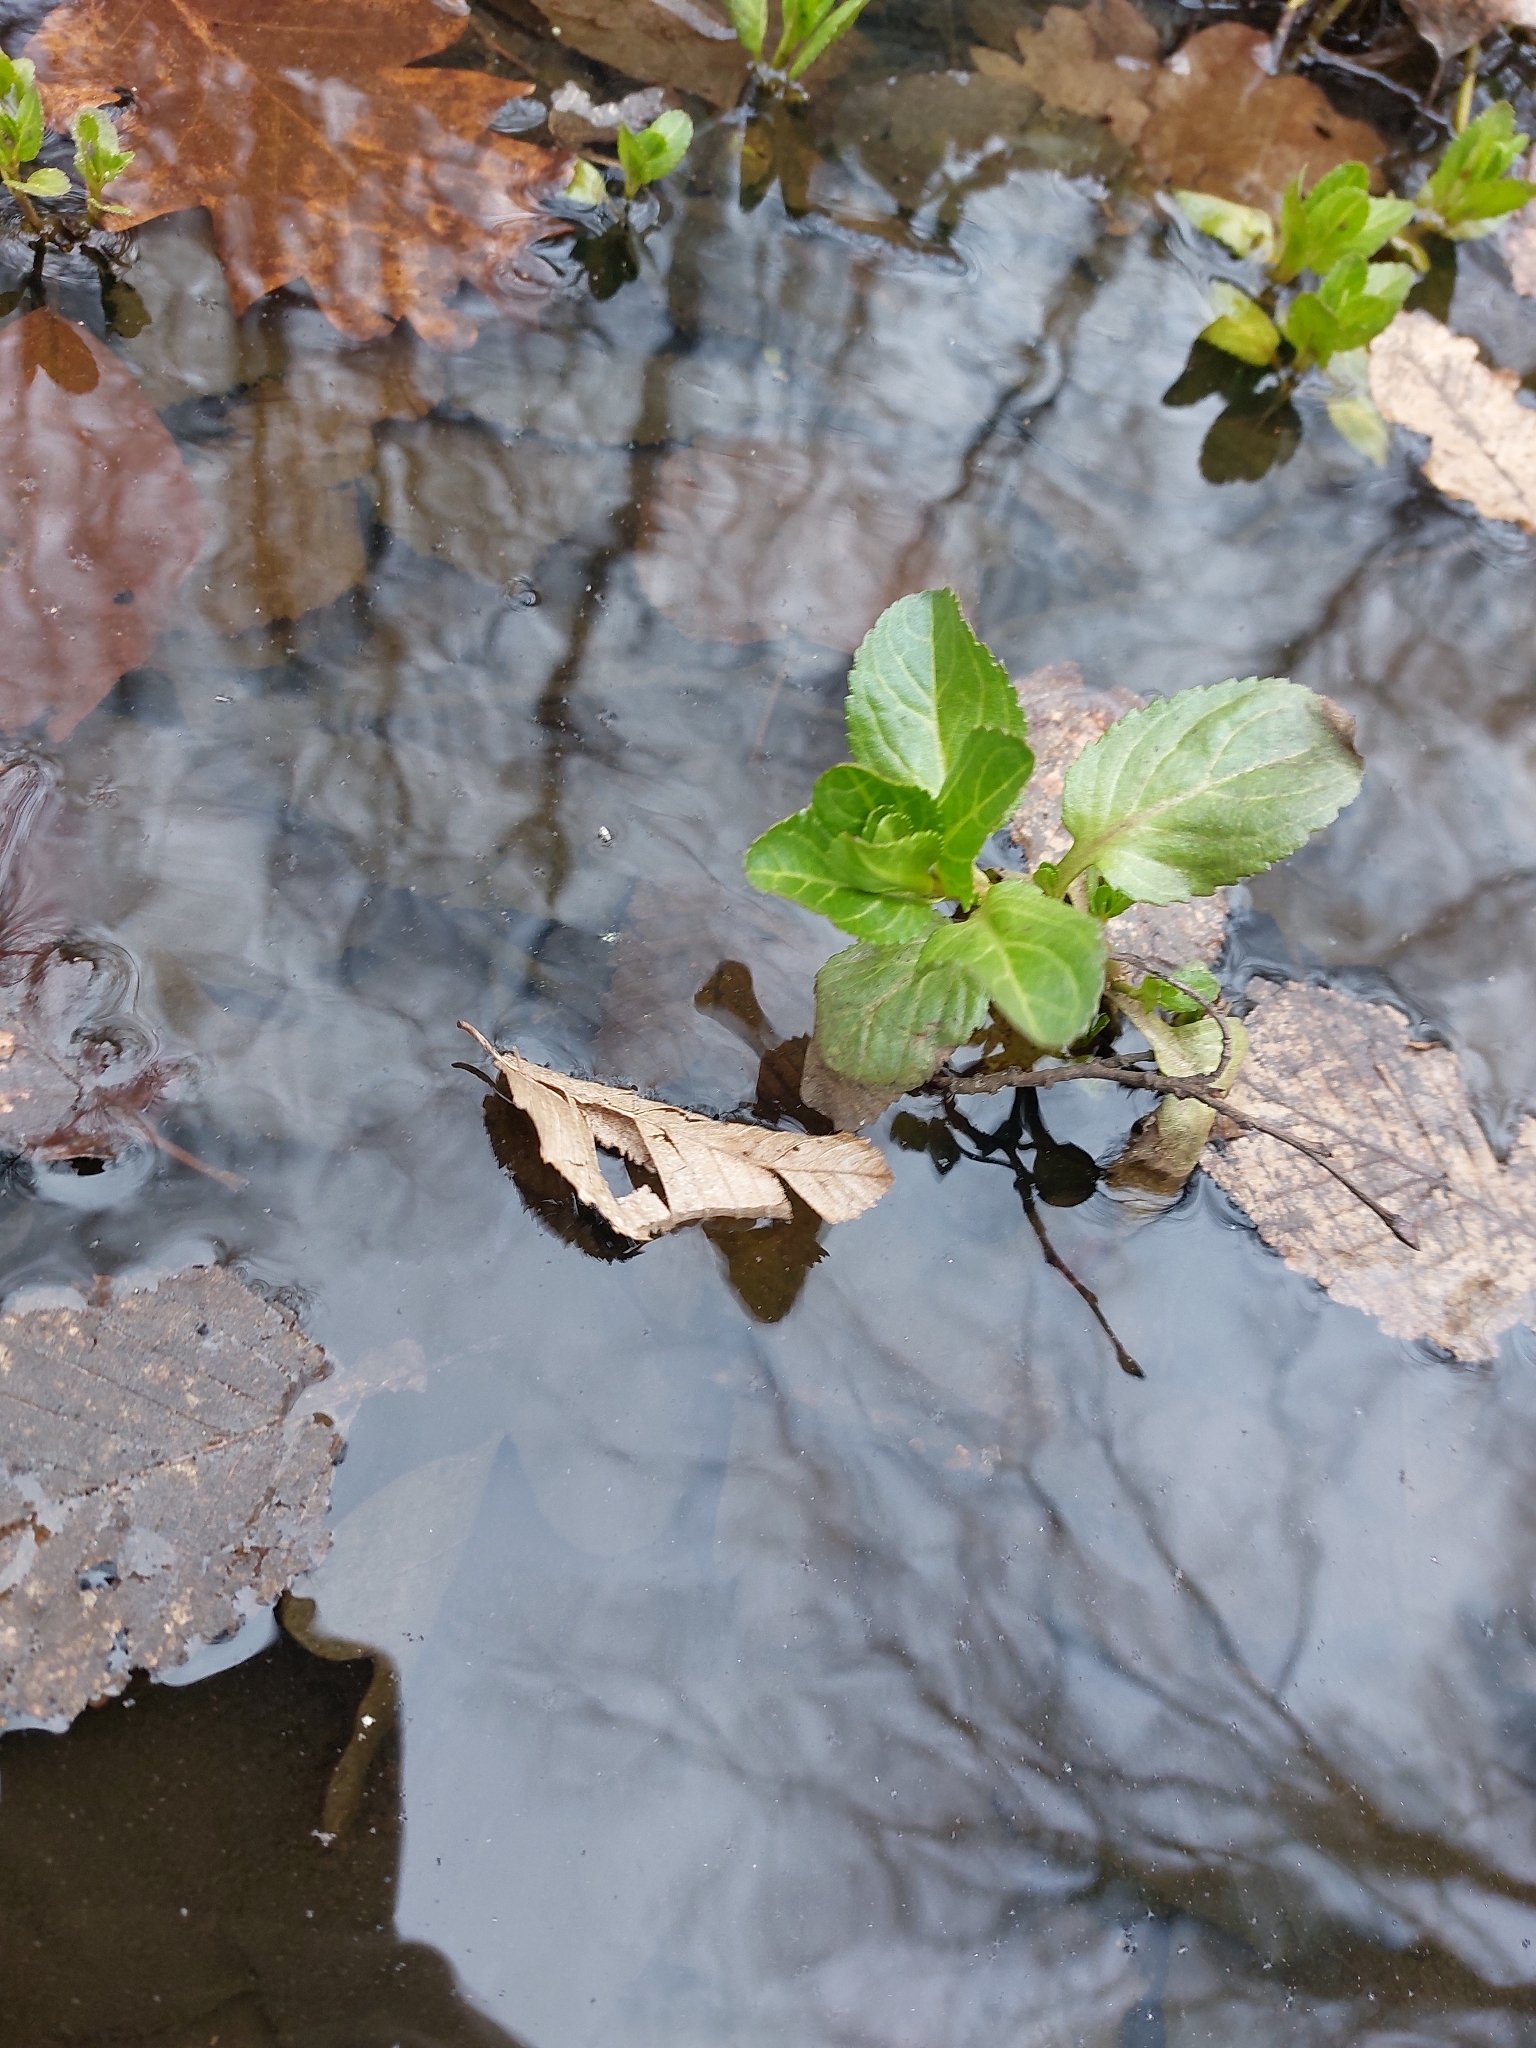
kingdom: Plantae
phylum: Tracheophyta
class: Magnoliopsida
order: Lamiales
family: Plantaginaceae
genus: Veronica
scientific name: Veronica beccabunga
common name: Brooklime
